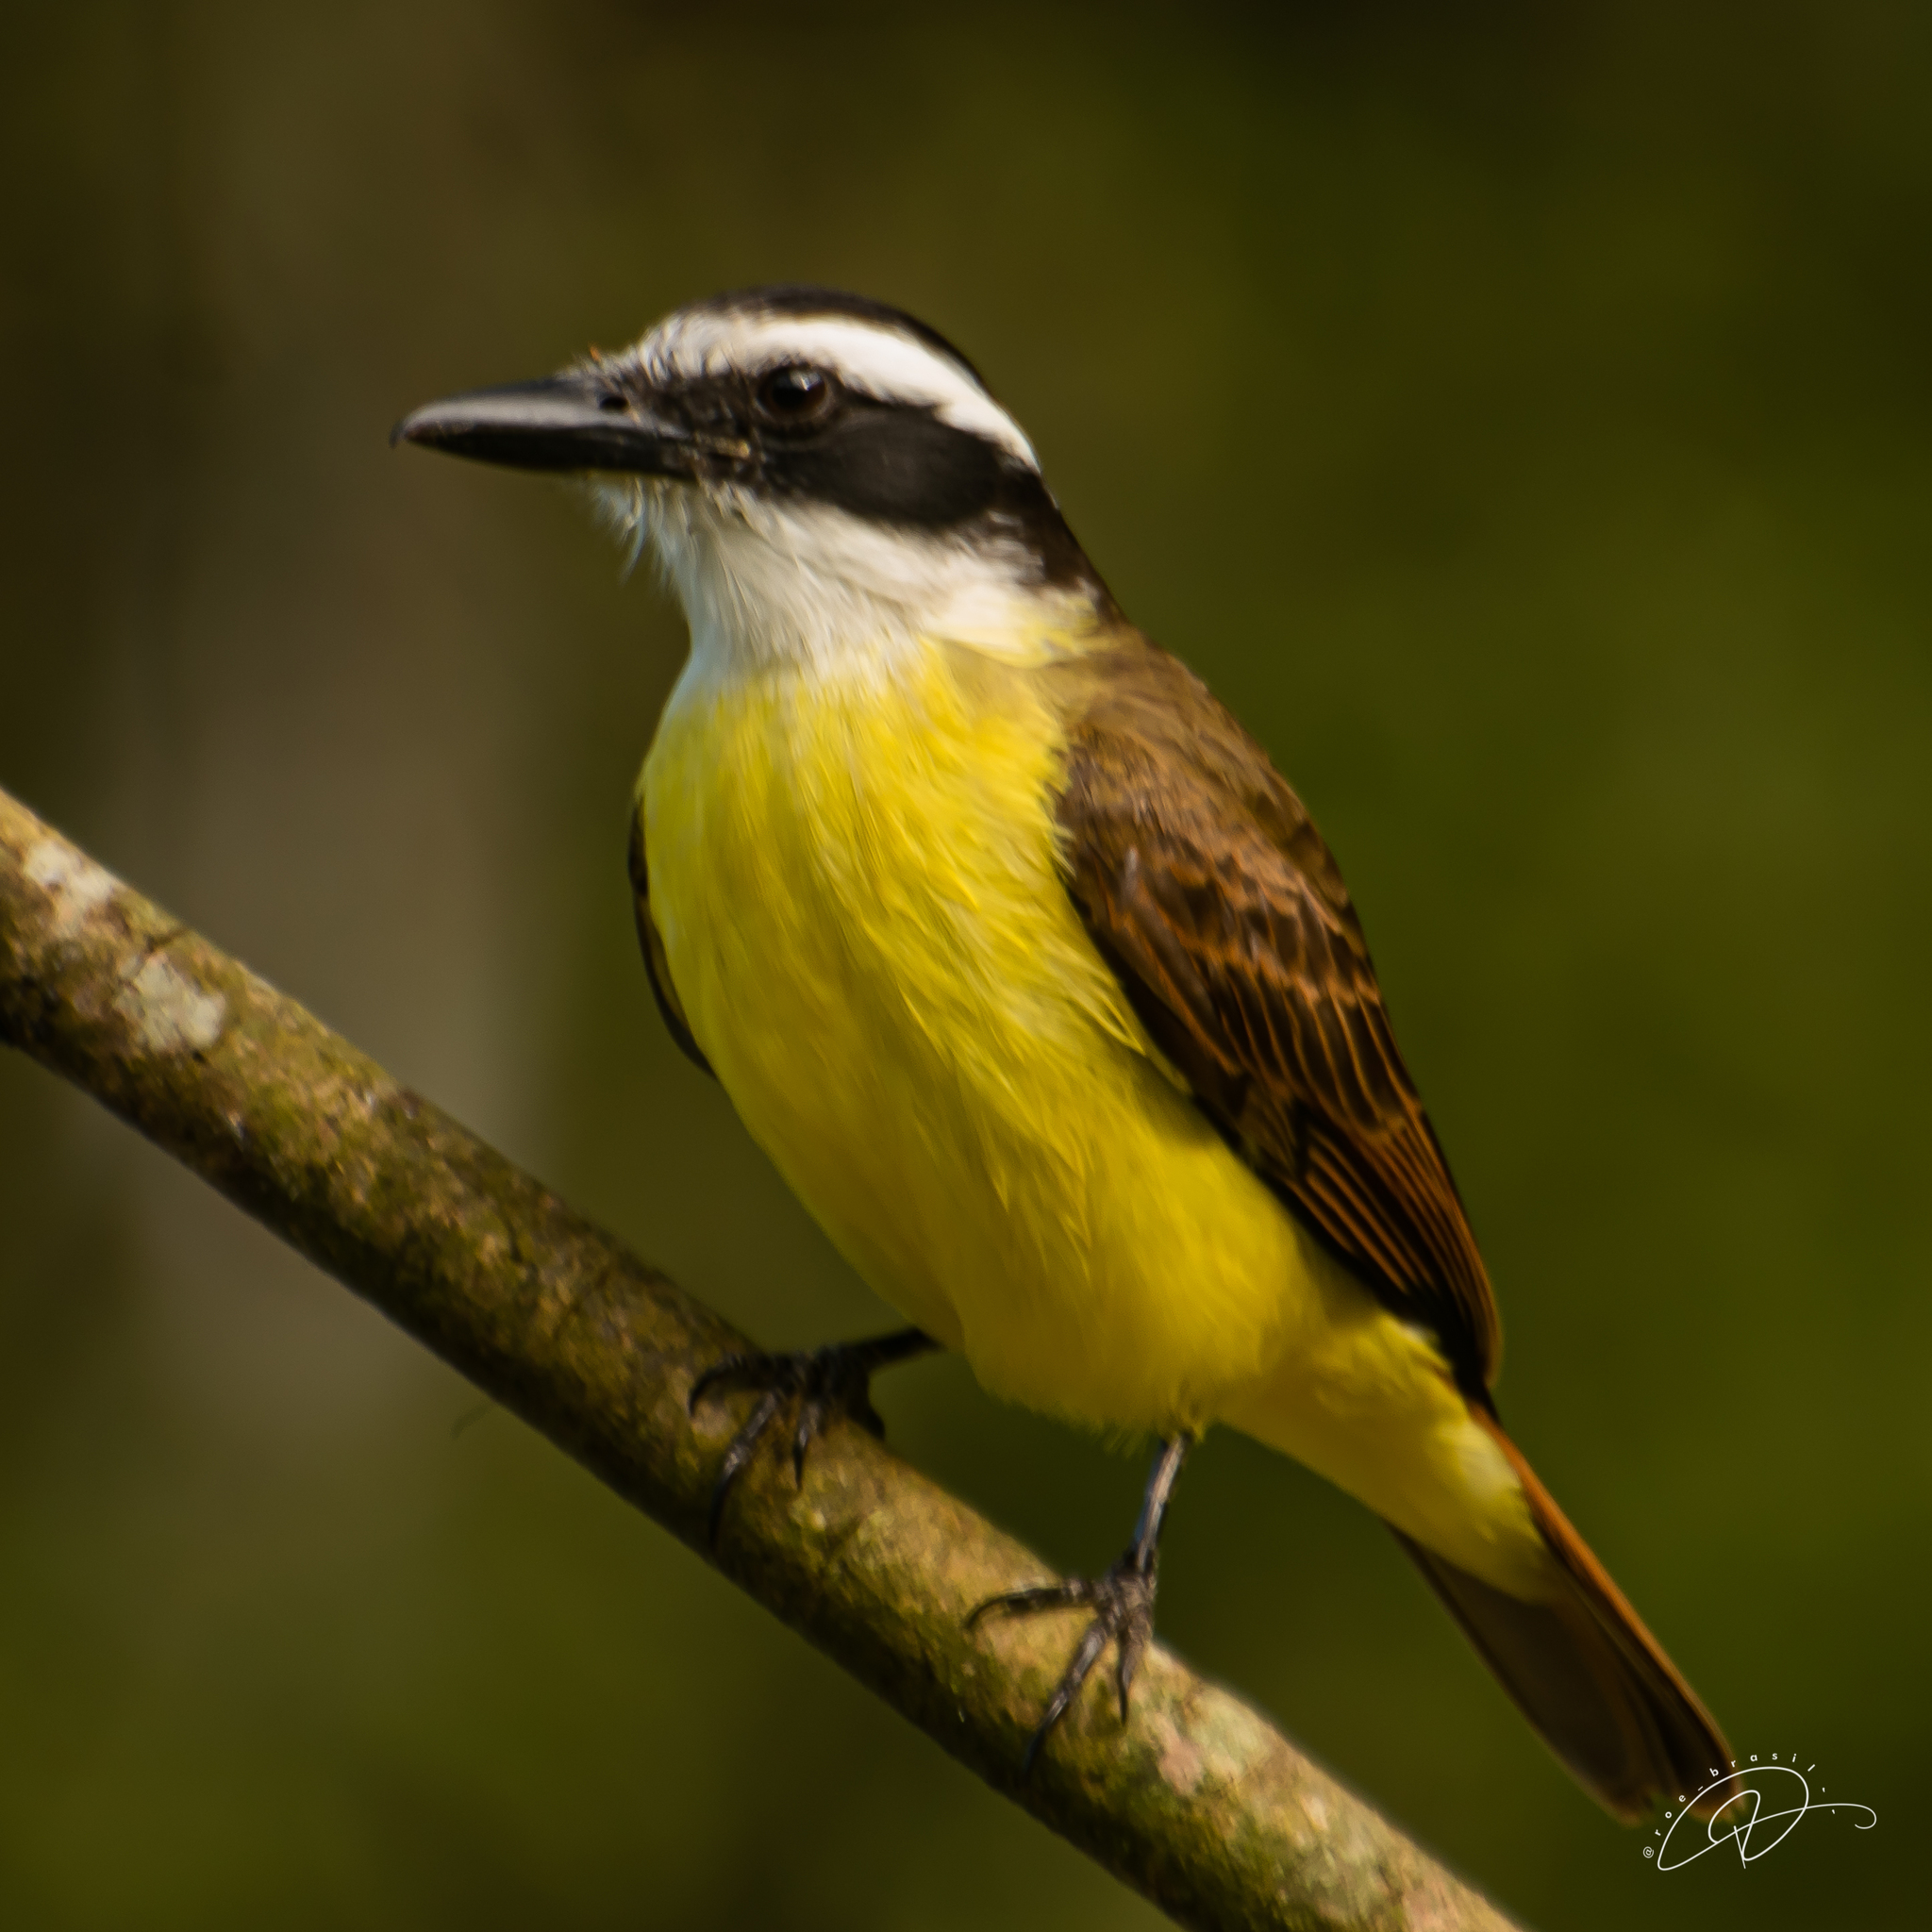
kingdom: Animalia
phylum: Chordata
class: Aves
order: Passeriformes
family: Tyrannidae
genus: Pitangus
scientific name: Pitangus sulphuratus
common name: Great kiskadee
